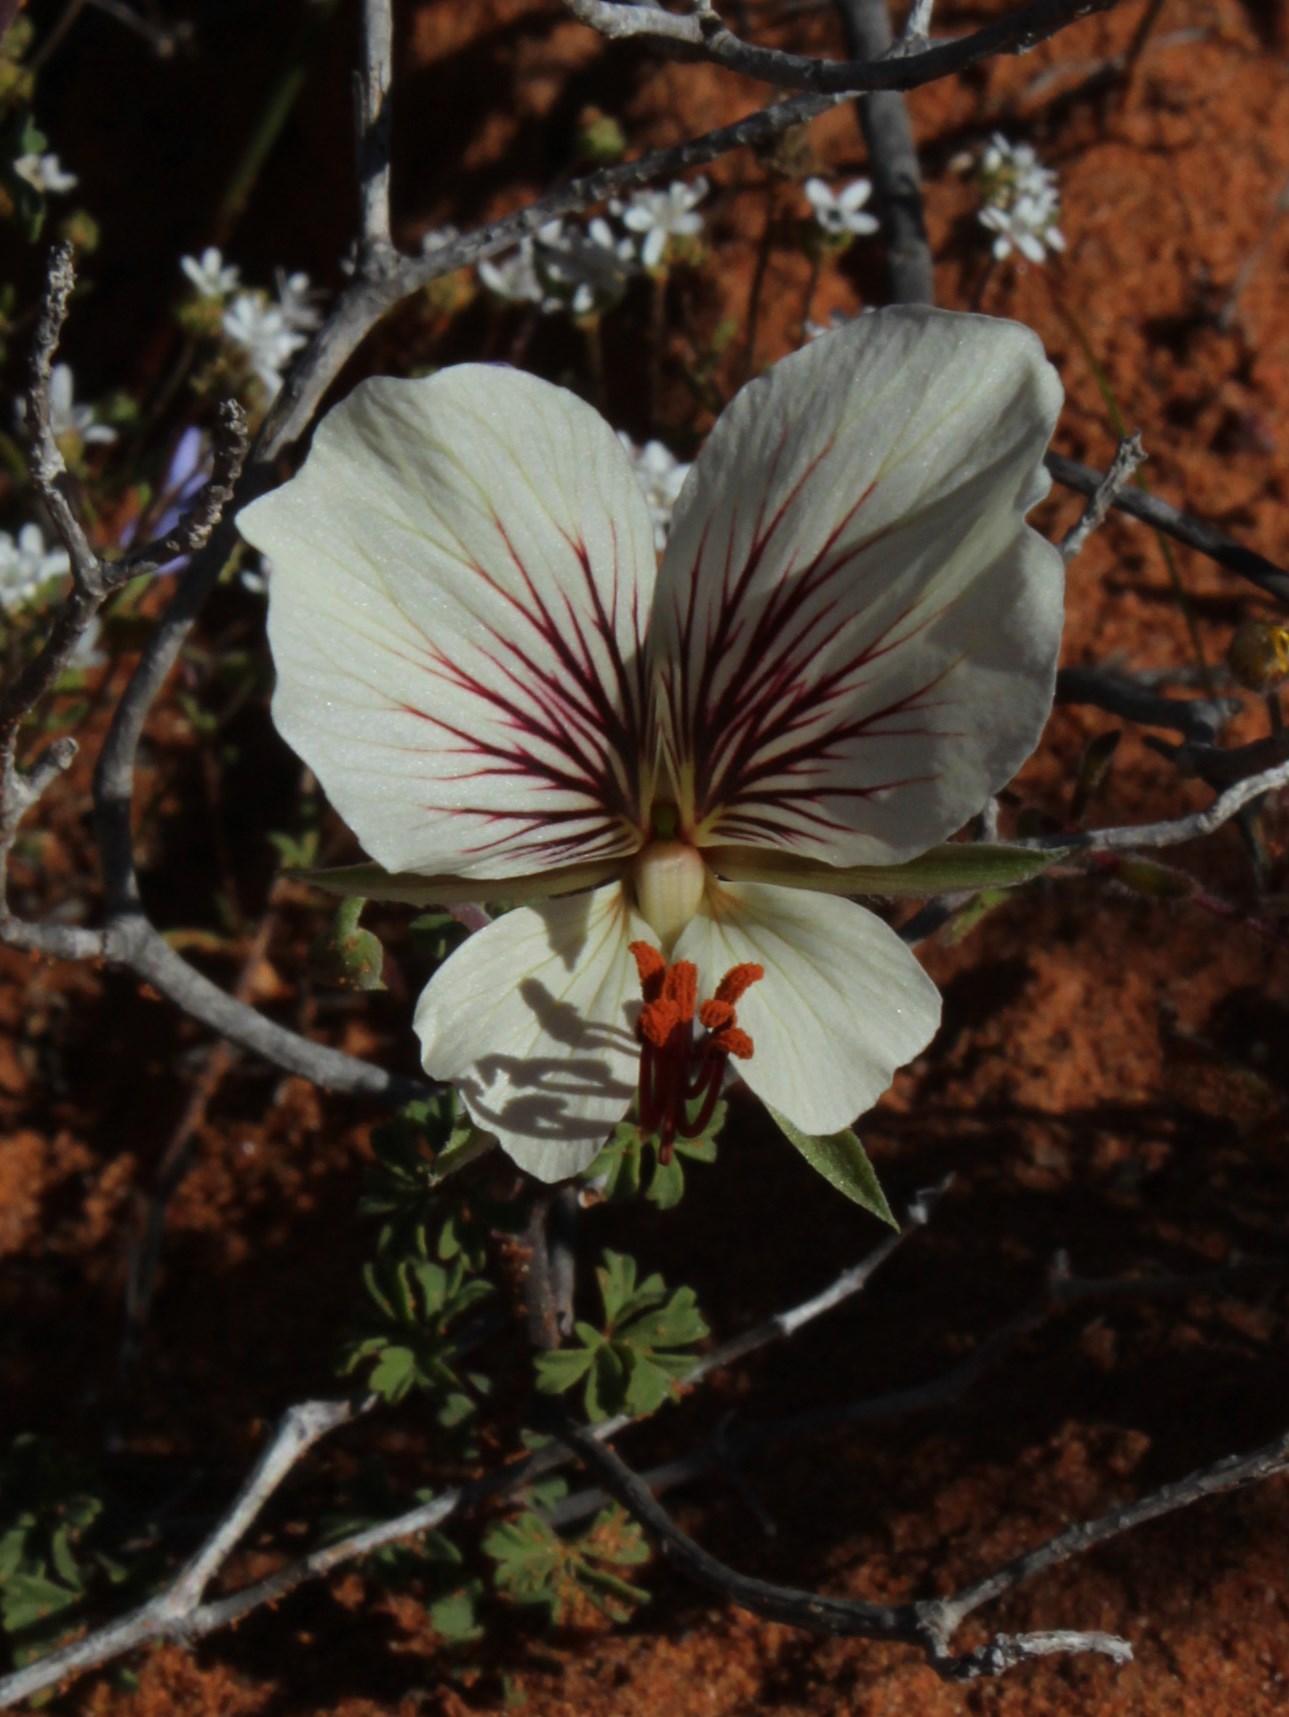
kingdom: Plantae
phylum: Tracheophyta
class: Magnoliopsida
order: Geraniales
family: Geraniaceae
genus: Pelargonium
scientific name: Pelargonium praemorsum
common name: Quinate-leaf pelargonium
